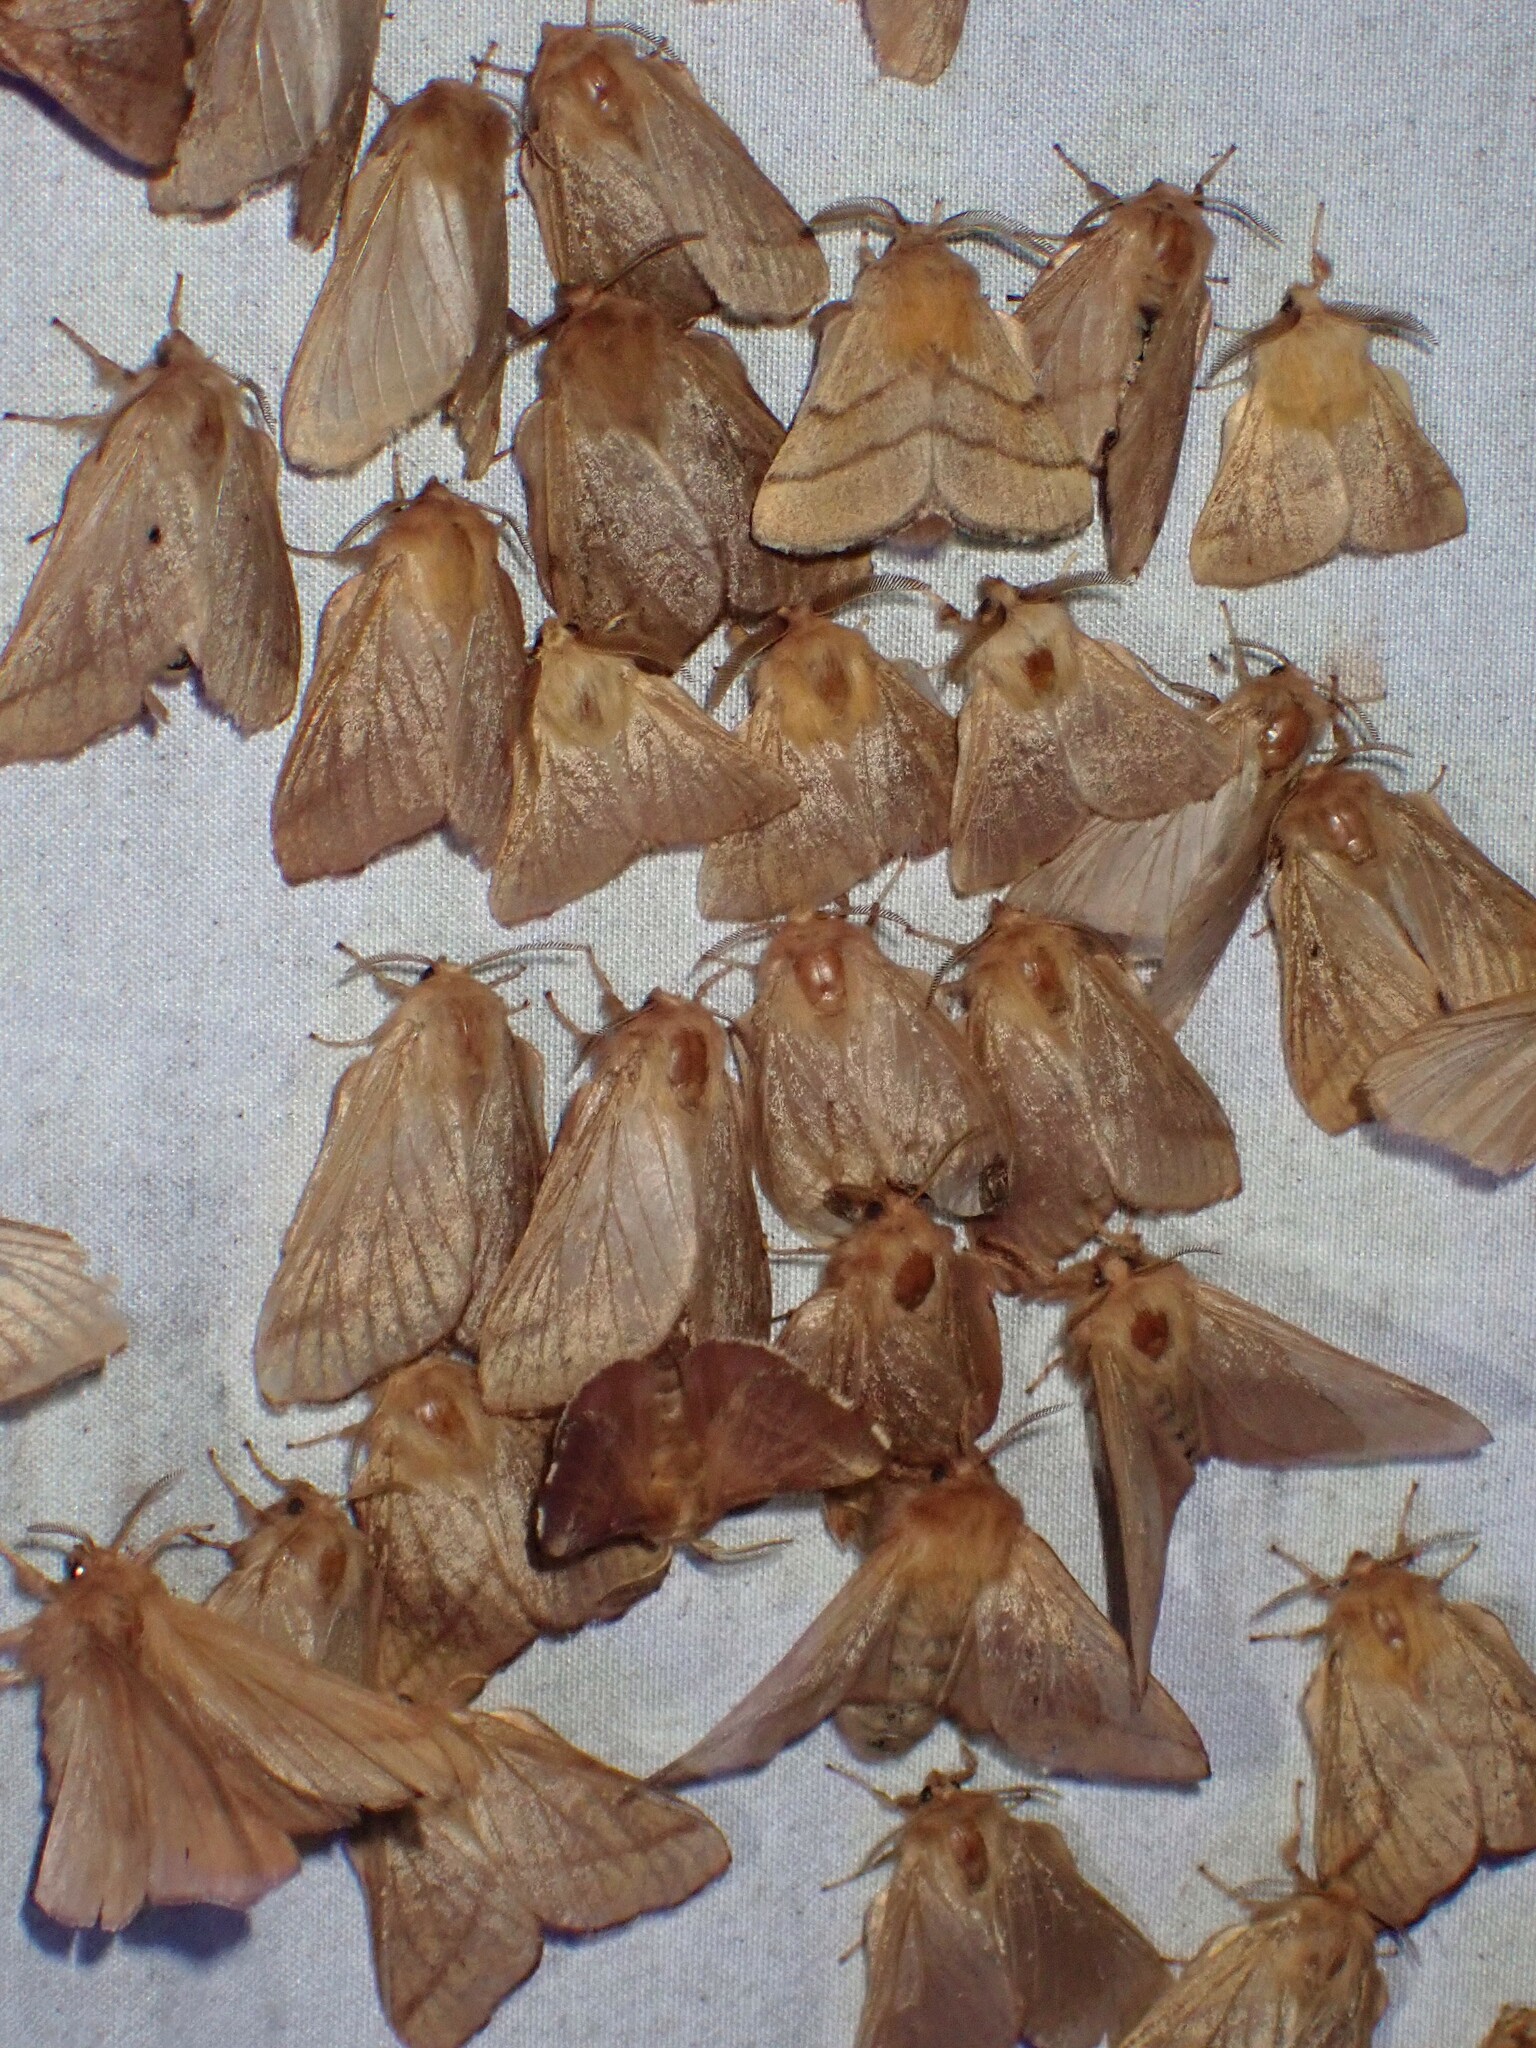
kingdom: Animalia
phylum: Arthropoda
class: Insecta
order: Lepidoptera
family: Lasiocampidae
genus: Malacosoma
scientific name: Malacosoma disstria
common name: Forest tent caterpillar
